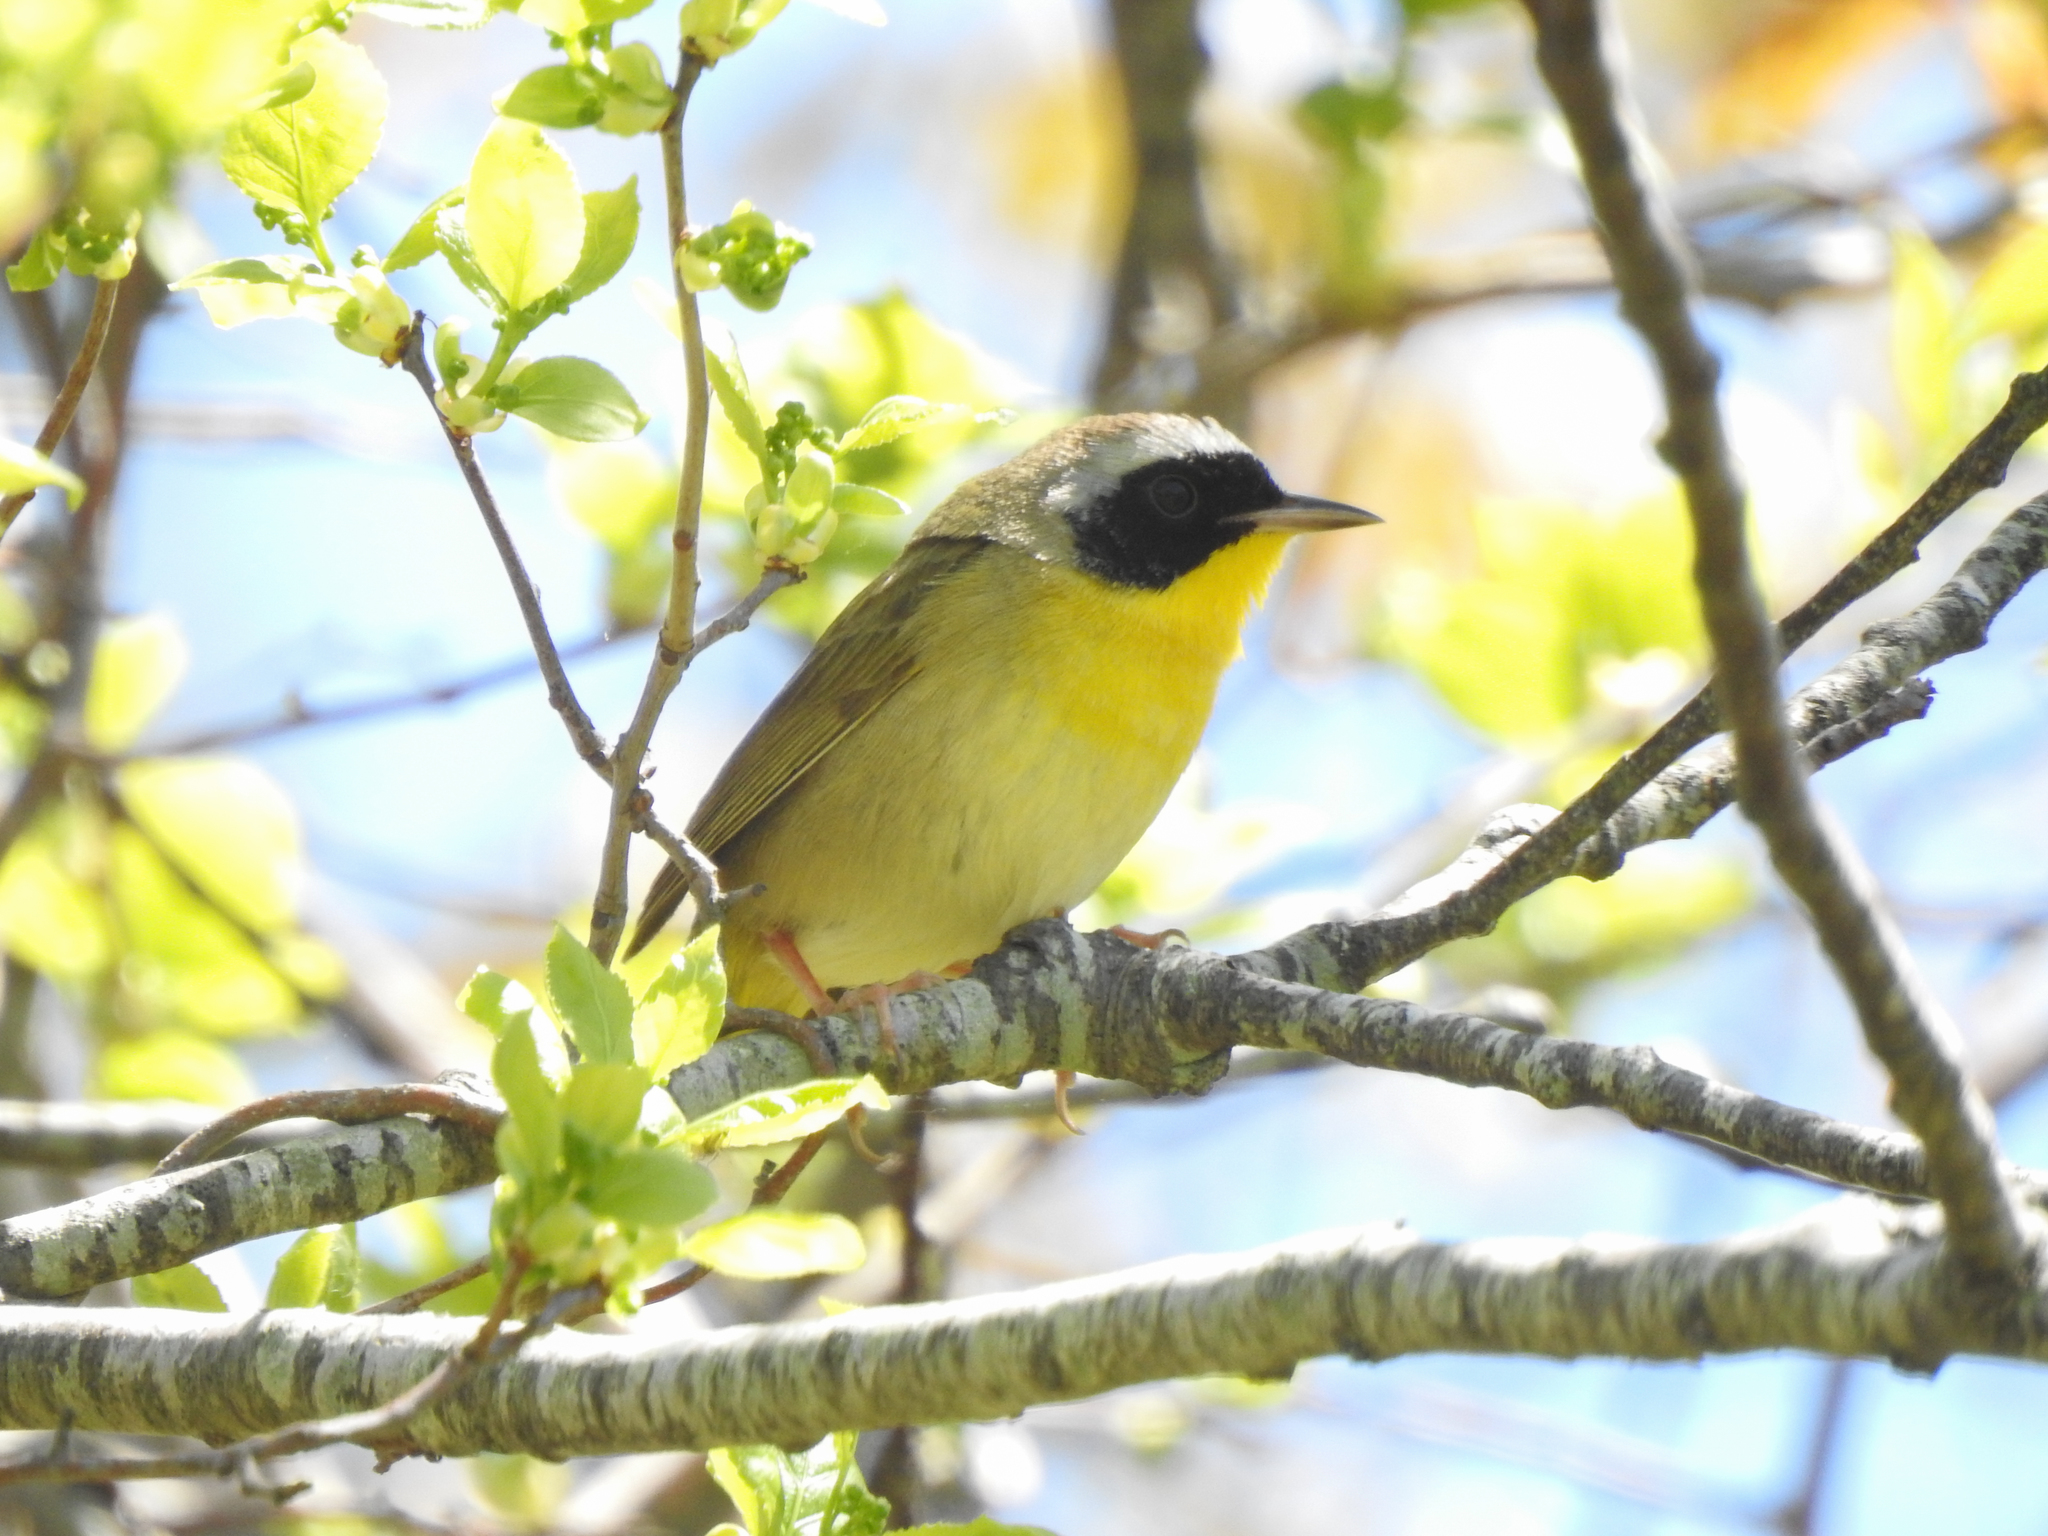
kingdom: Animalia
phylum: Chordata
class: Aves
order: Passeriformes
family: Parulidae
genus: Geothlypis
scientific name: Geothlypis trichas
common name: Common yellowthroat
